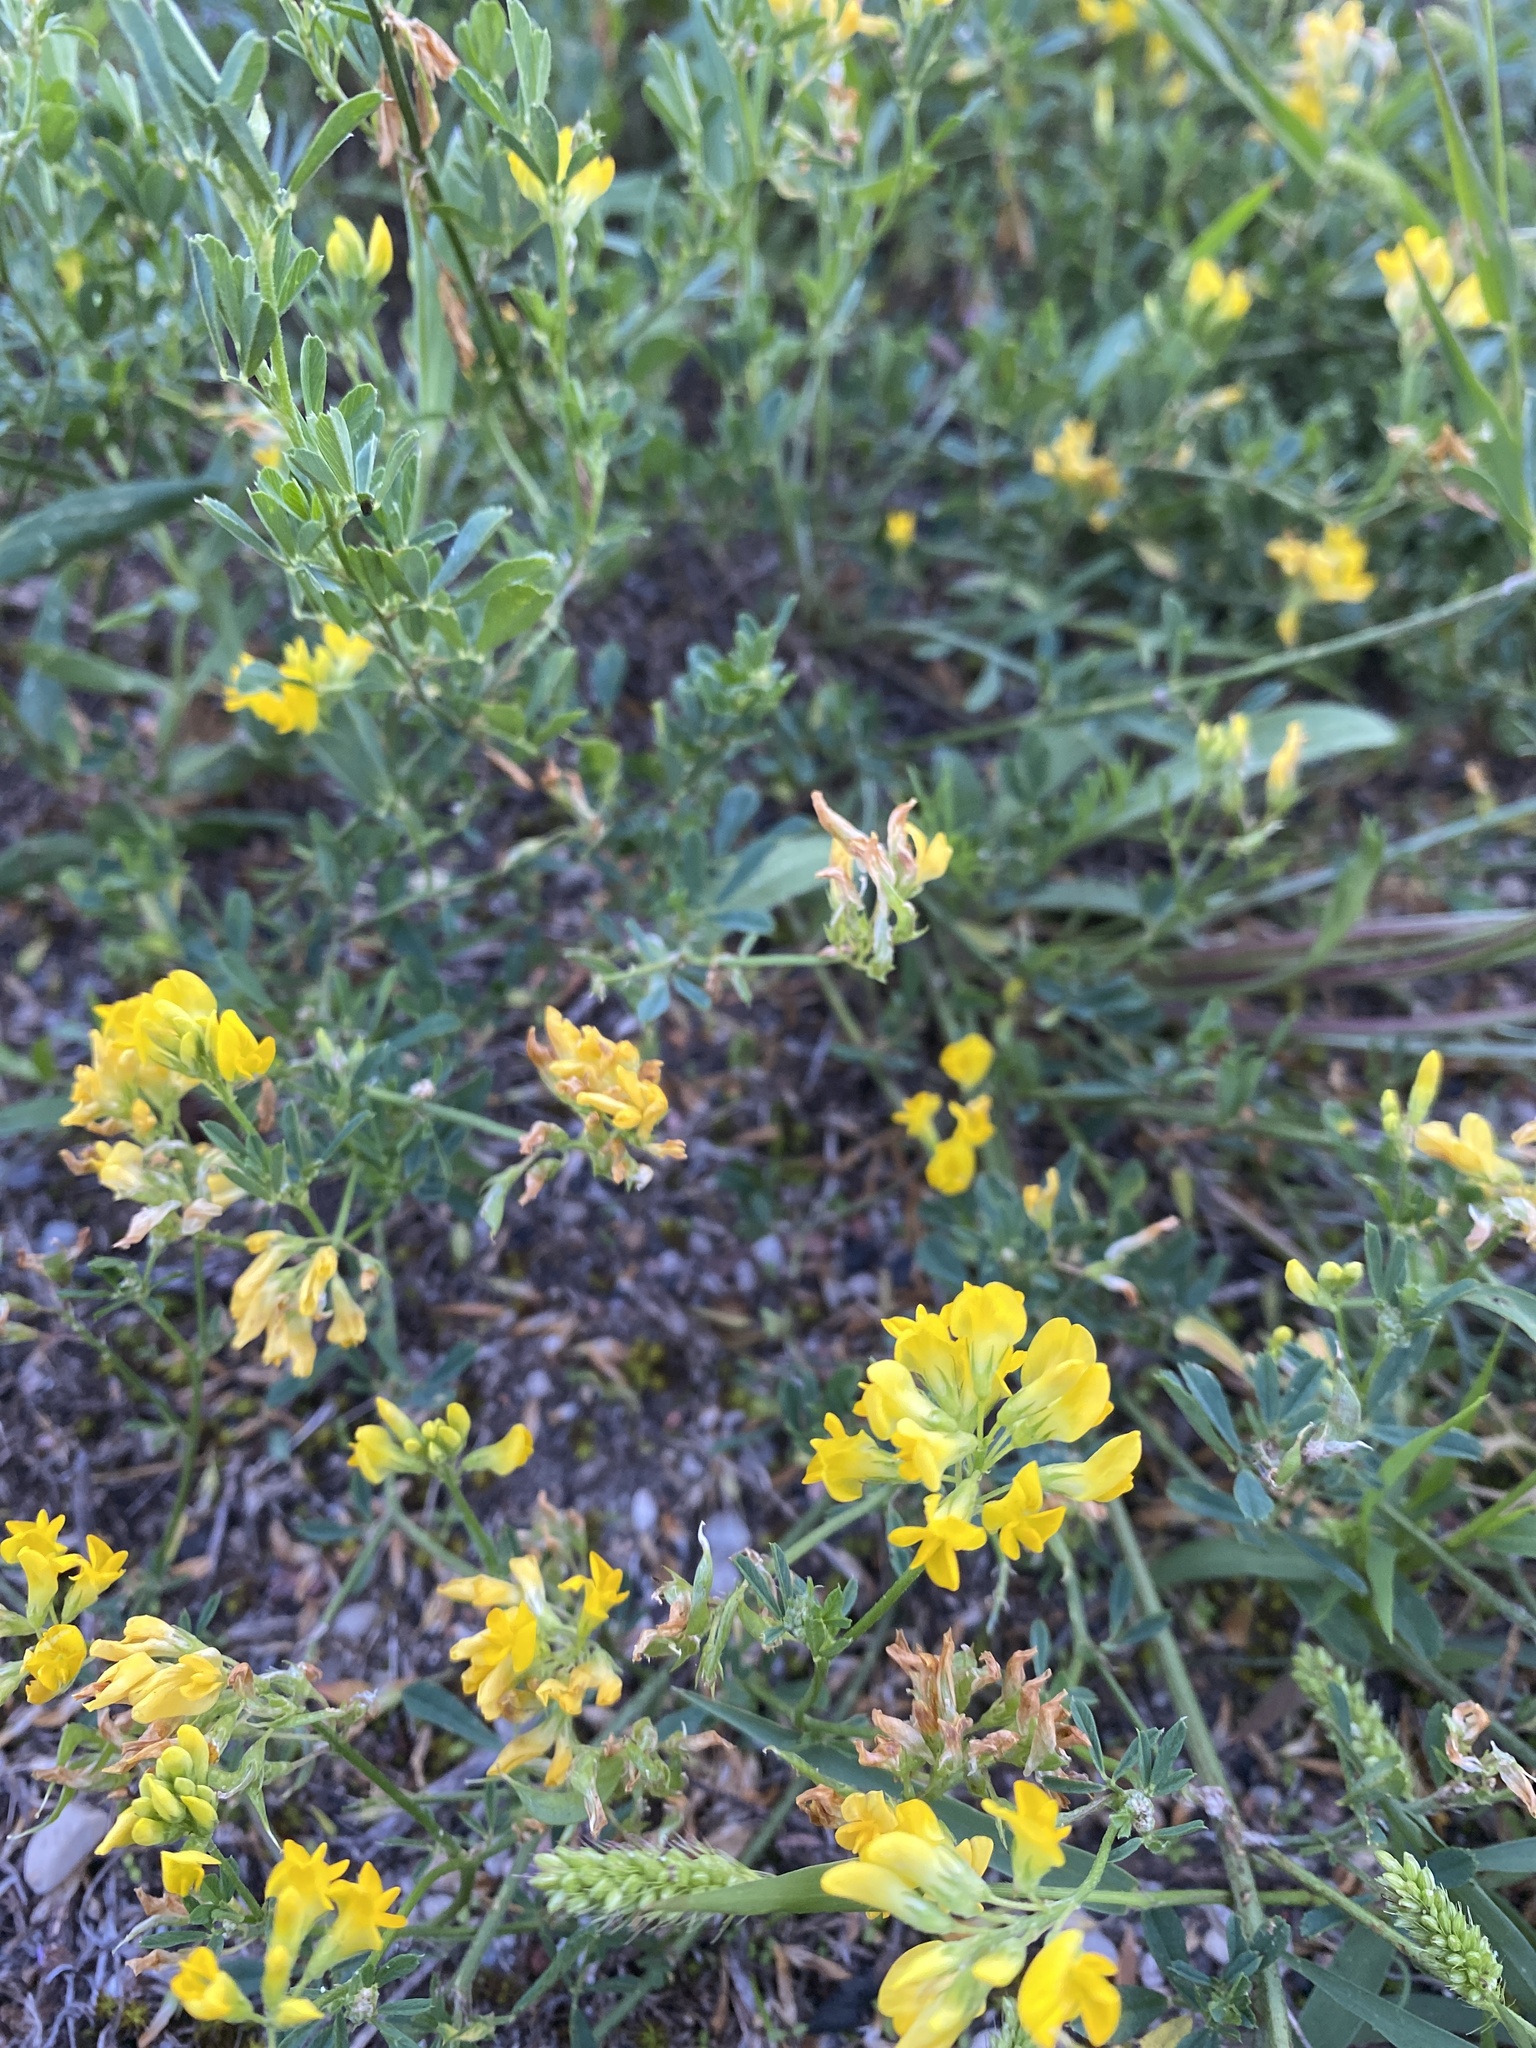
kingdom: Plantae
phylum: Tracheophyta
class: Magnoliopsida
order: Fabales
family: Fabaceae
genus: Medicago
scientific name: Medicago falcata
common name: Sickle medick
